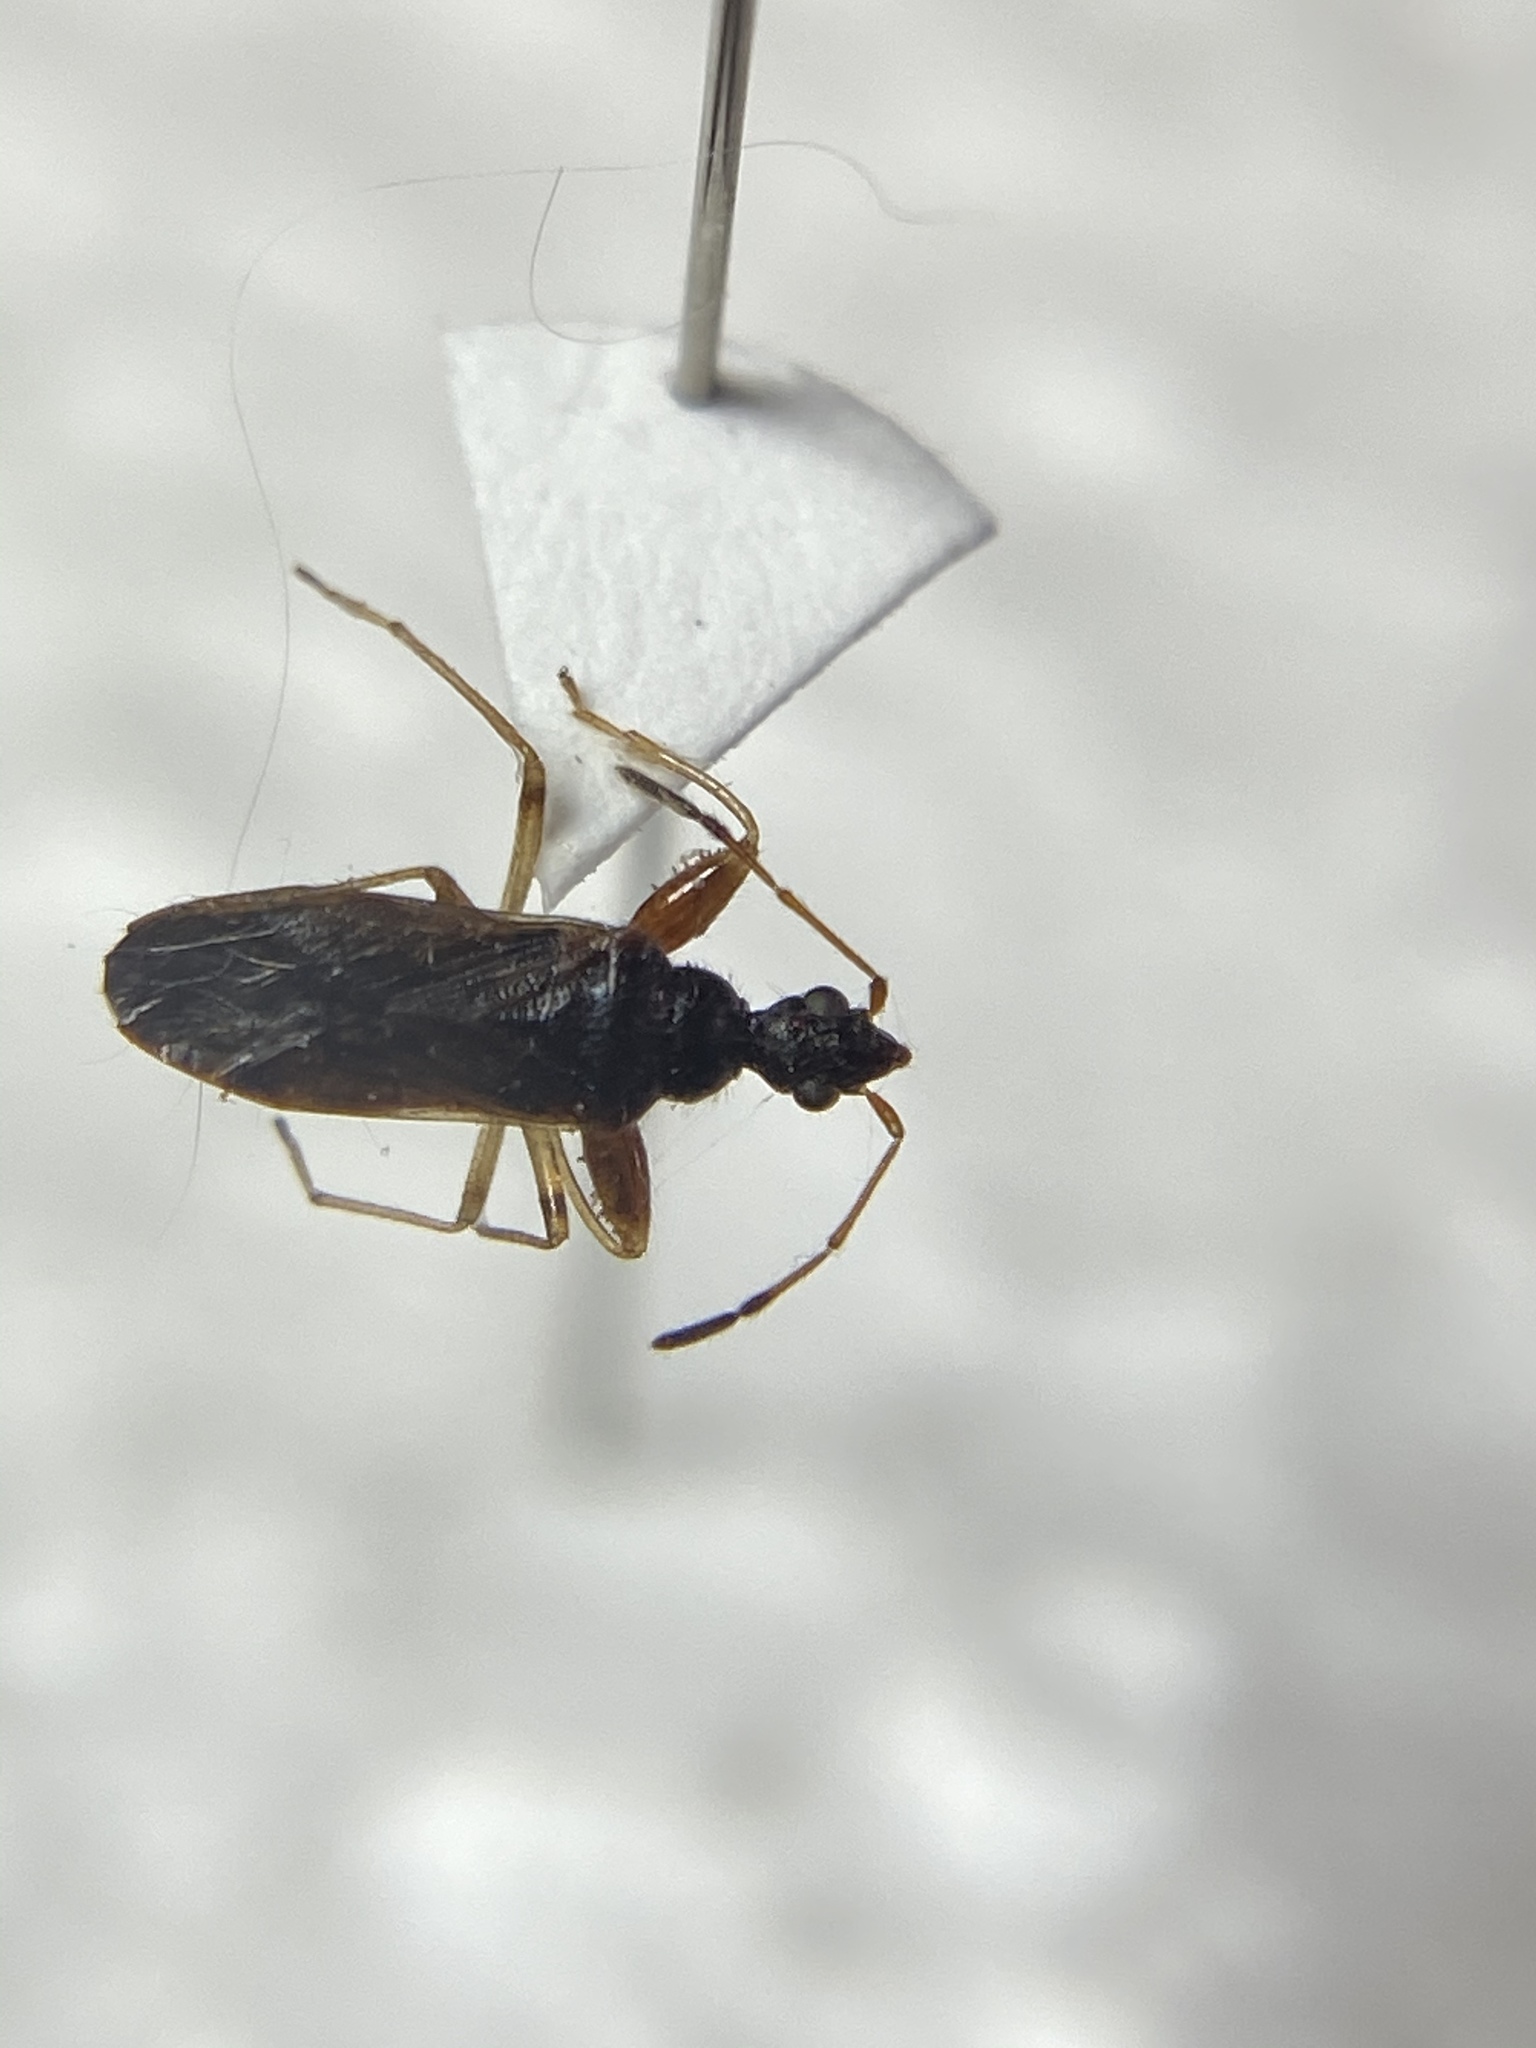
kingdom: Animalia
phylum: Arthropoda
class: Insecta
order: Hemiptera
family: Rhyparochromidae
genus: Heraeus
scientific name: Heraeus plebejus
